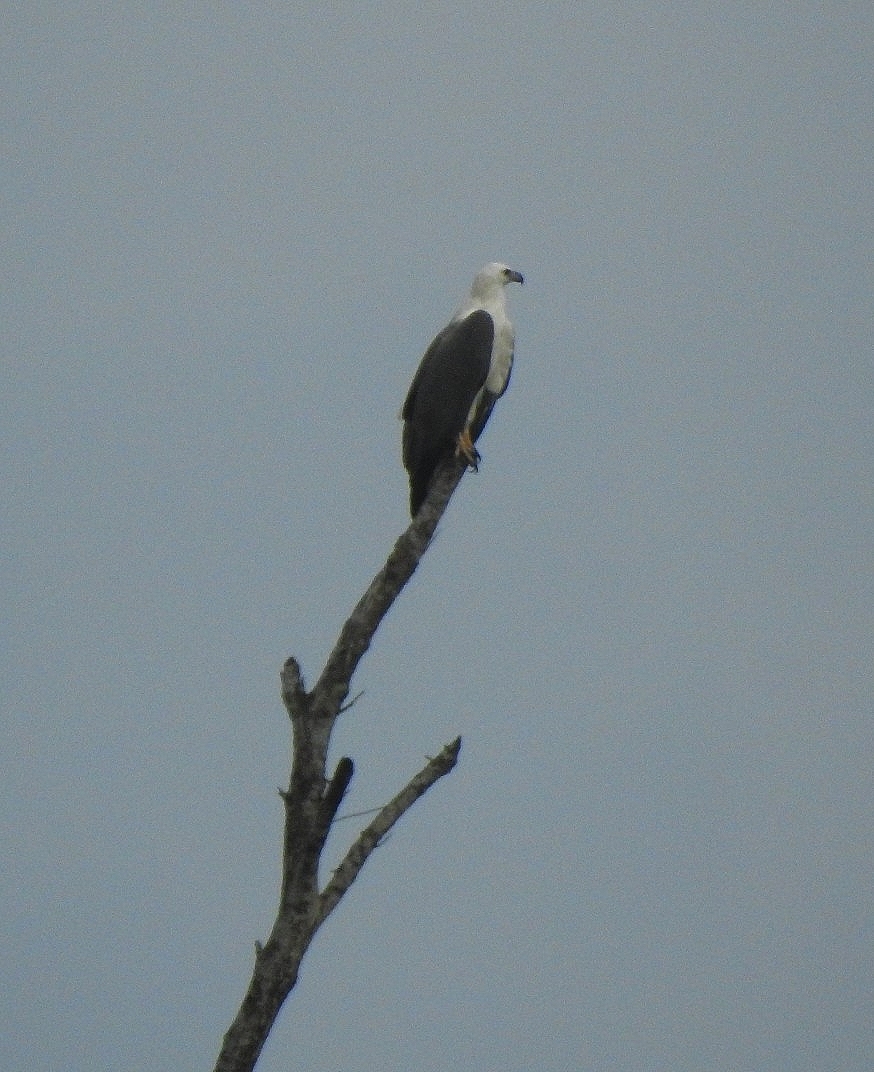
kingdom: Animalia
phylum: Chordata
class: Aves
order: Accipitriformes
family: Accipitridae
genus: Haliaeetus
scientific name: Haliaeetus leucogaster
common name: White-bellied sea eagle
